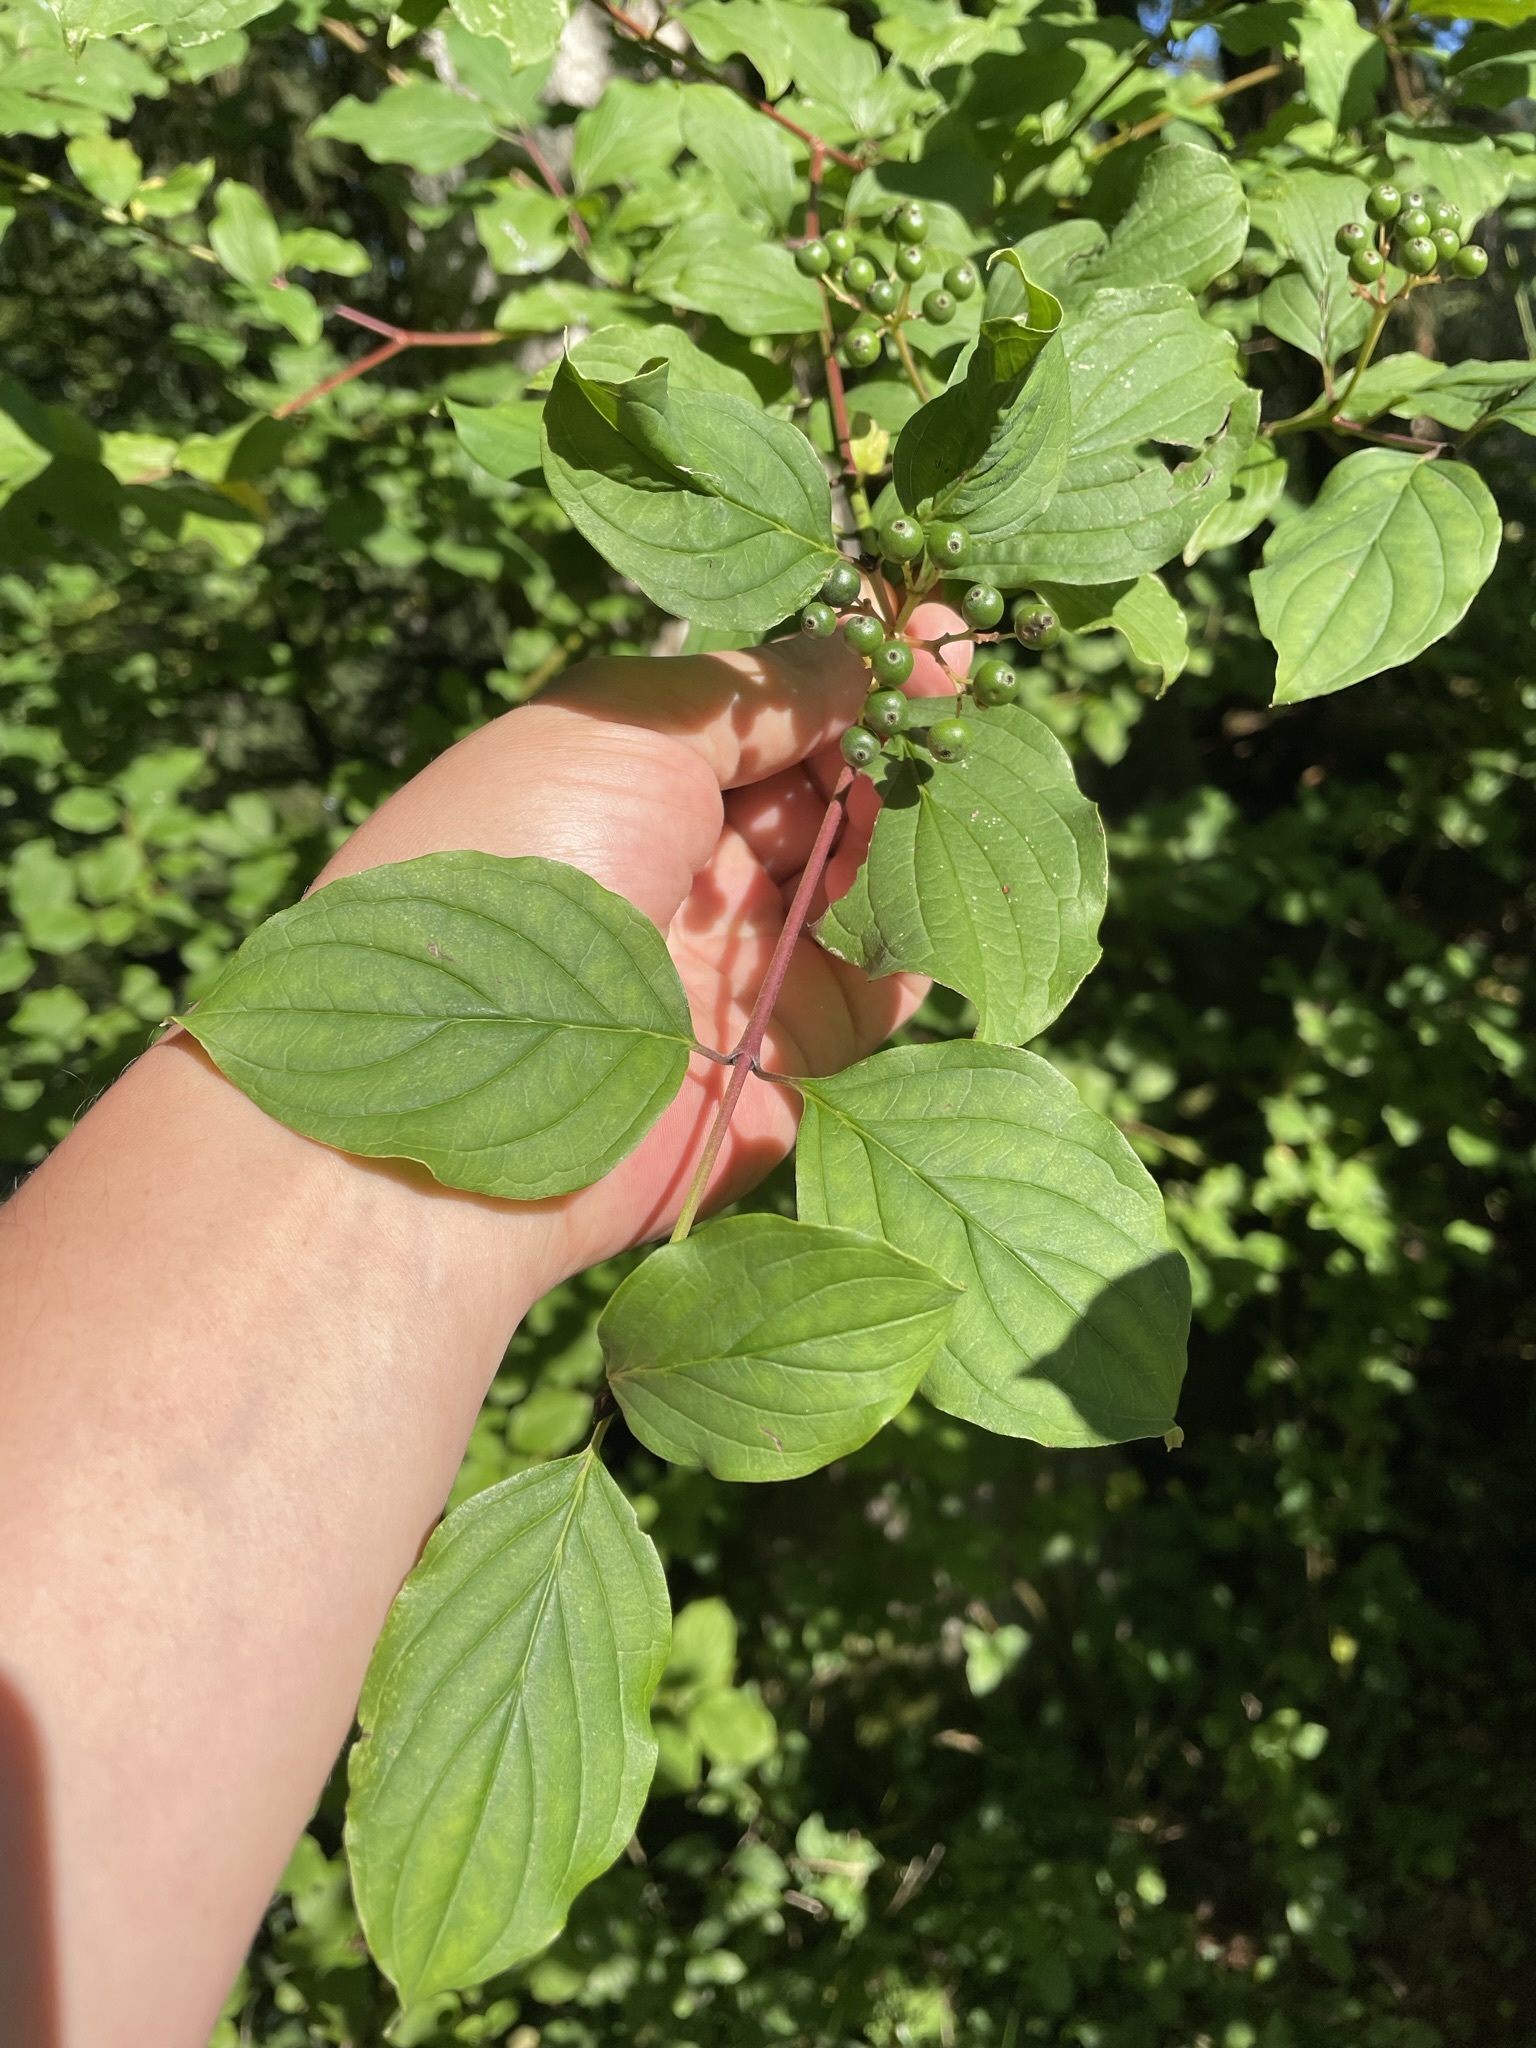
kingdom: Plantae
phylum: Tracheophyta
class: Magnoliopsida
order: Cornales
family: Cornaceae
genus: Cornus
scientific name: Cornus sanguinea
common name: Dogwood
